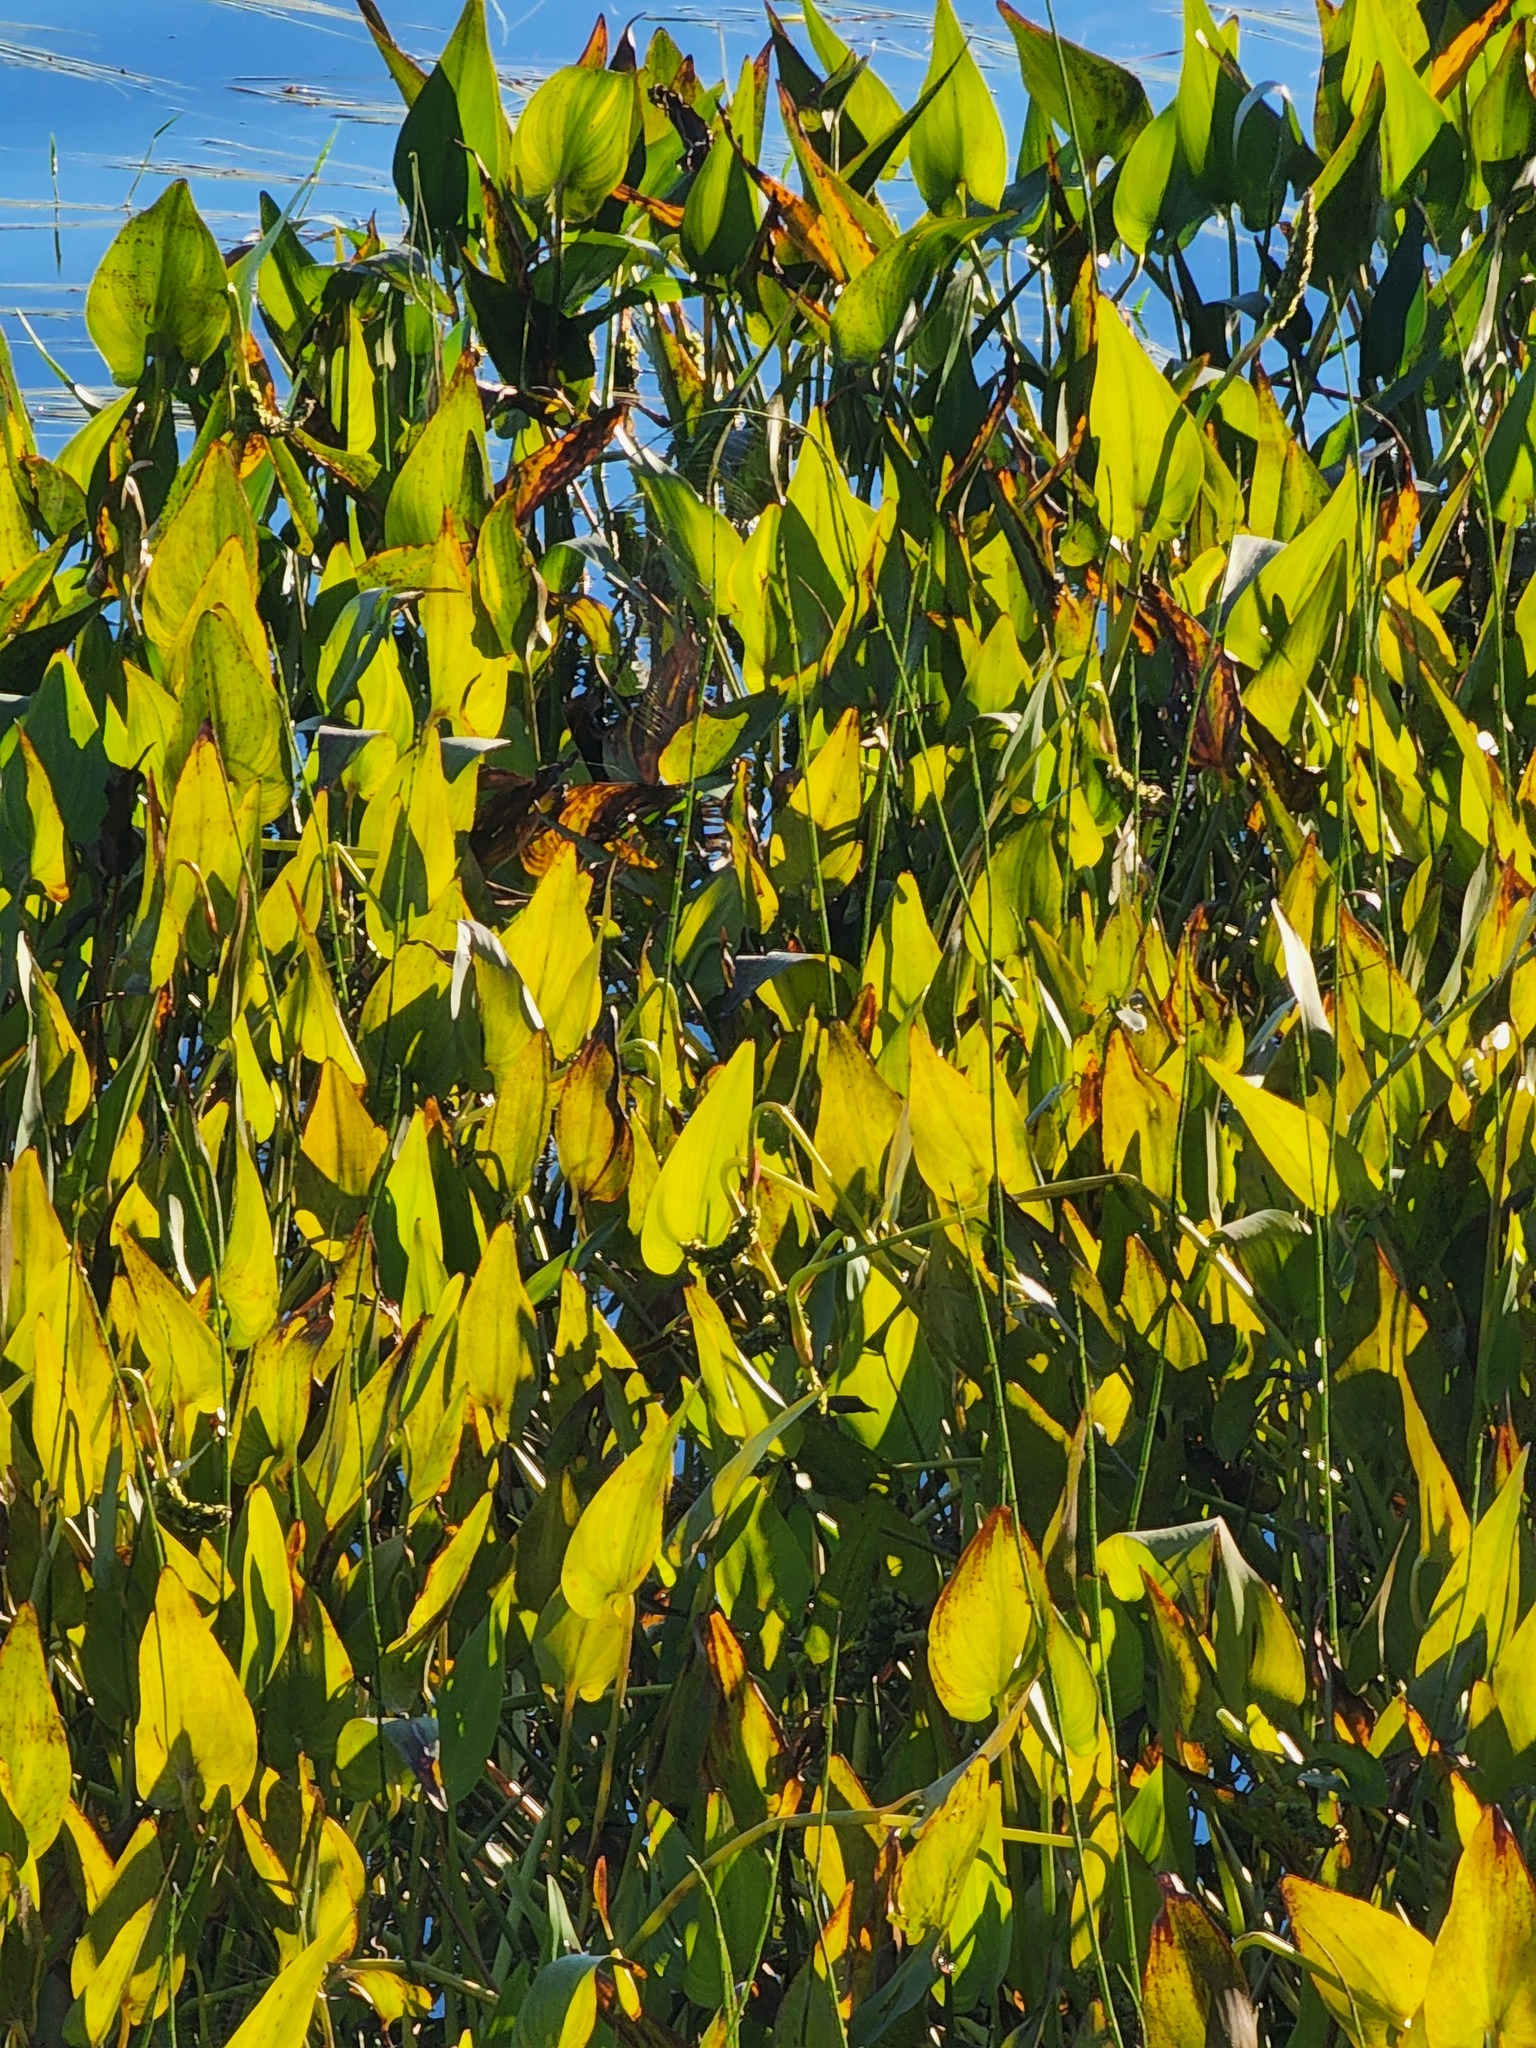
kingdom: Plantae
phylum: Tracheophyta
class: Liliopsida
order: Commelinales
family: Pontederiaceae
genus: Pontederia
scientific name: Pontederia cordata
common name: Pickerelweed
